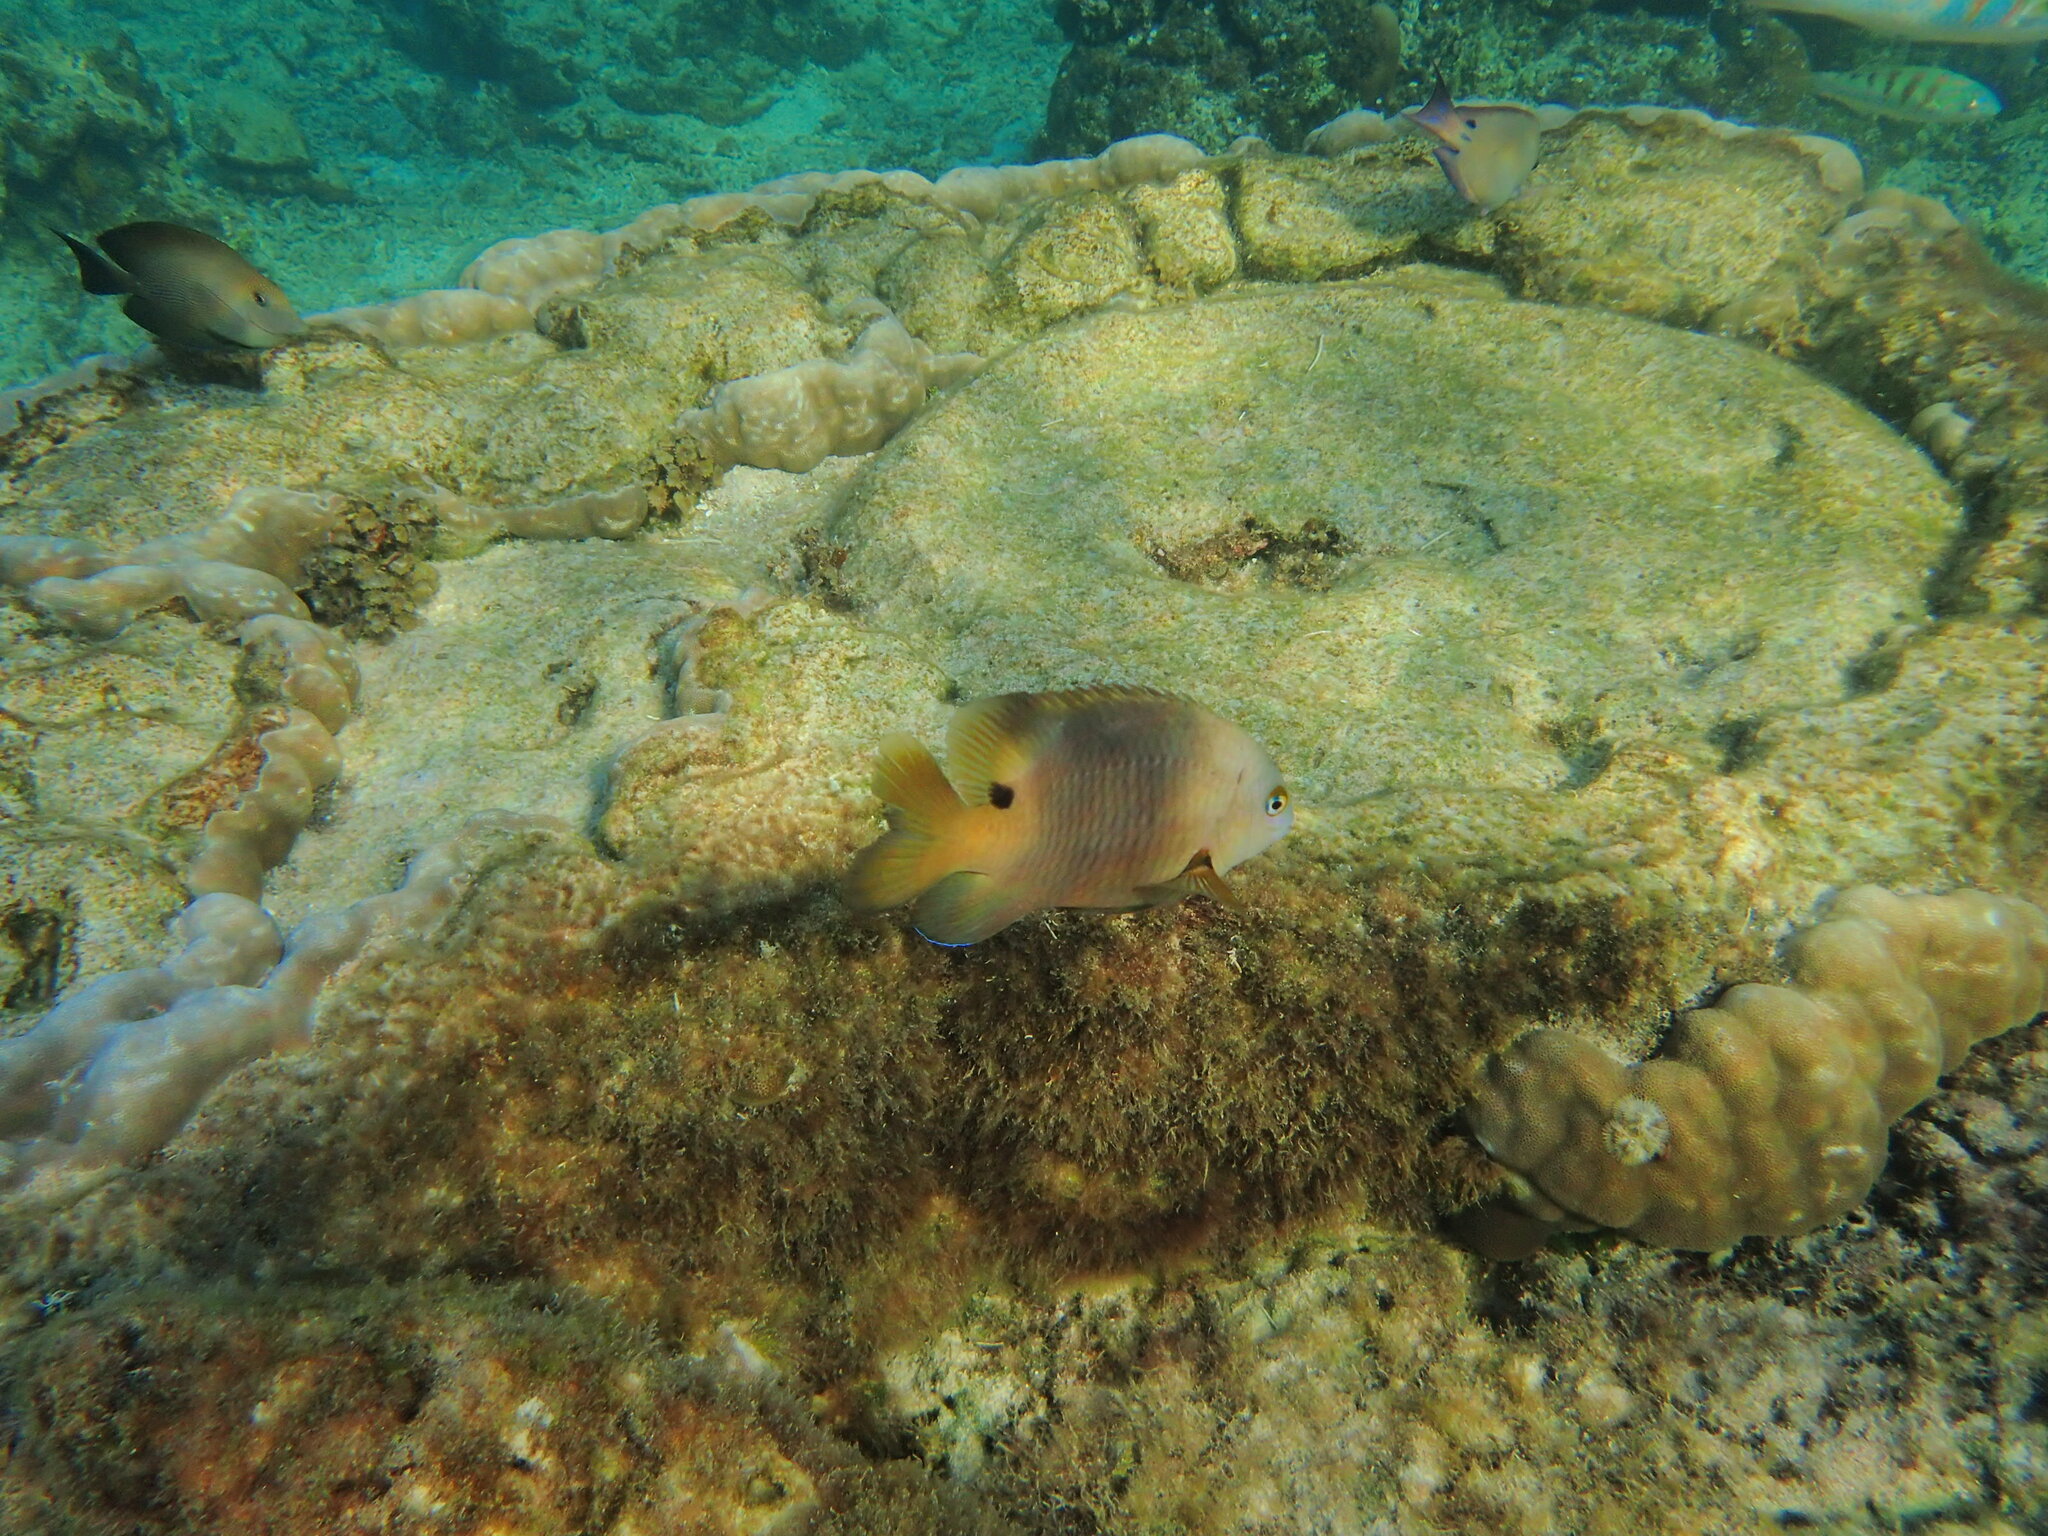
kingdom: Animalia
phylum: Chordata
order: Perciformes
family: Pomacentridae
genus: Stegastes
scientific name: Stegastes nigricans
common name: Dusky gregory
